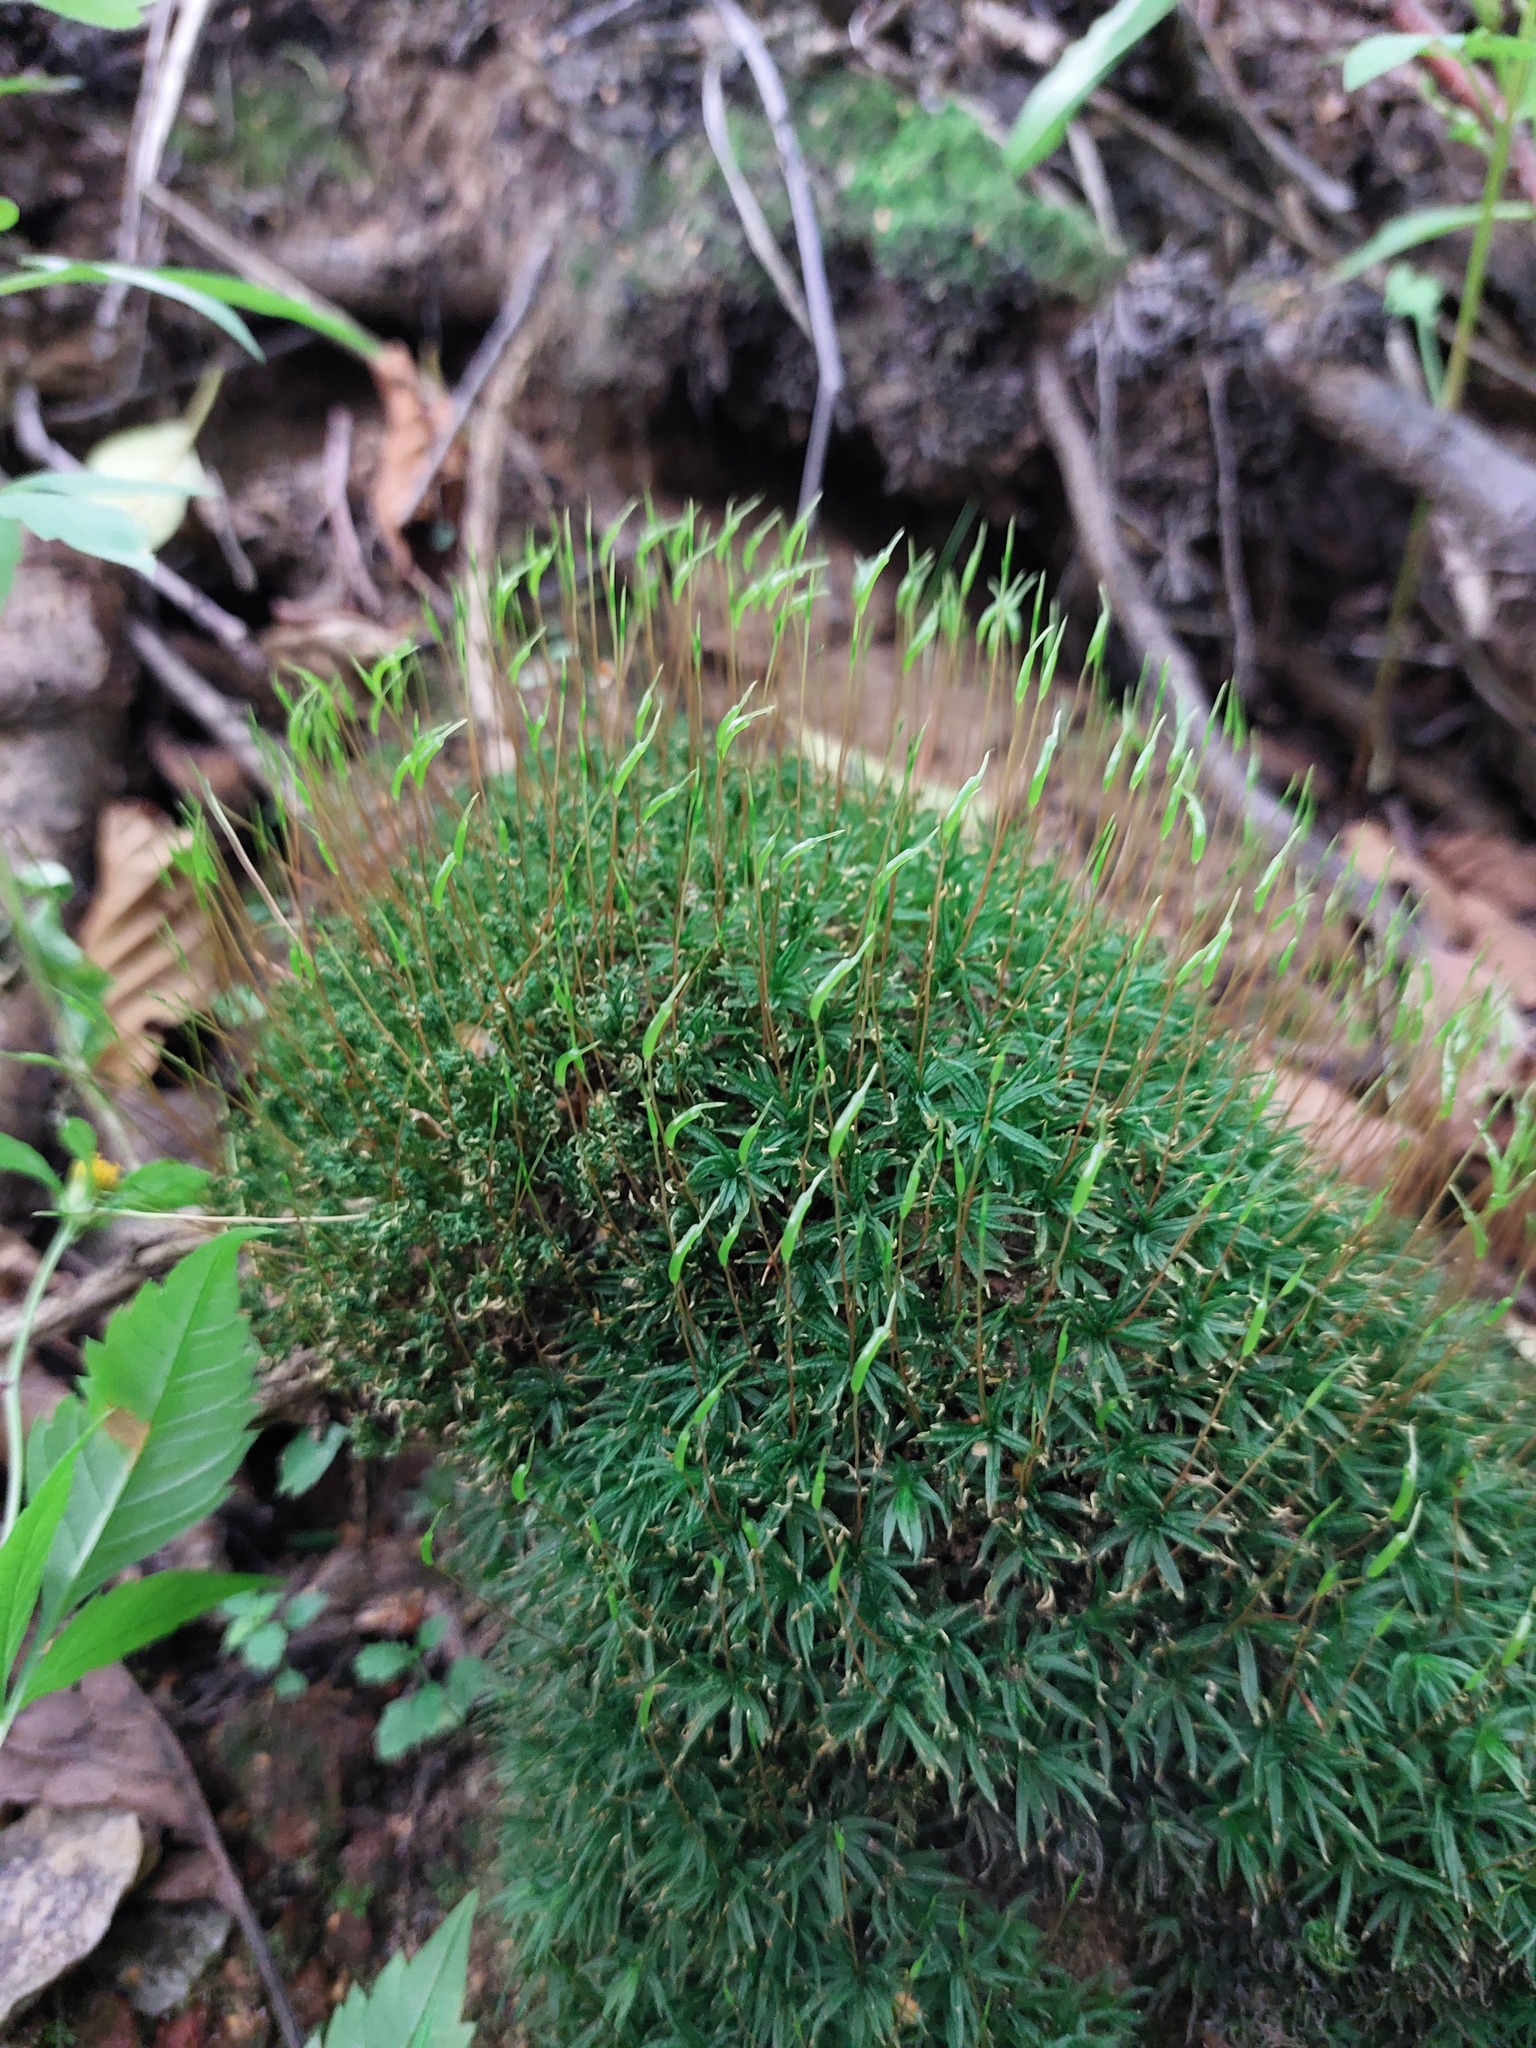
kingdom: Plantae
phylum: Bryophyta
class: Polytrichopsida
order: Polytrichales
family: Polytrichaceae
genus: Atrichum
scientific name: Atrichum undulatum
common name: Common smoothcap
